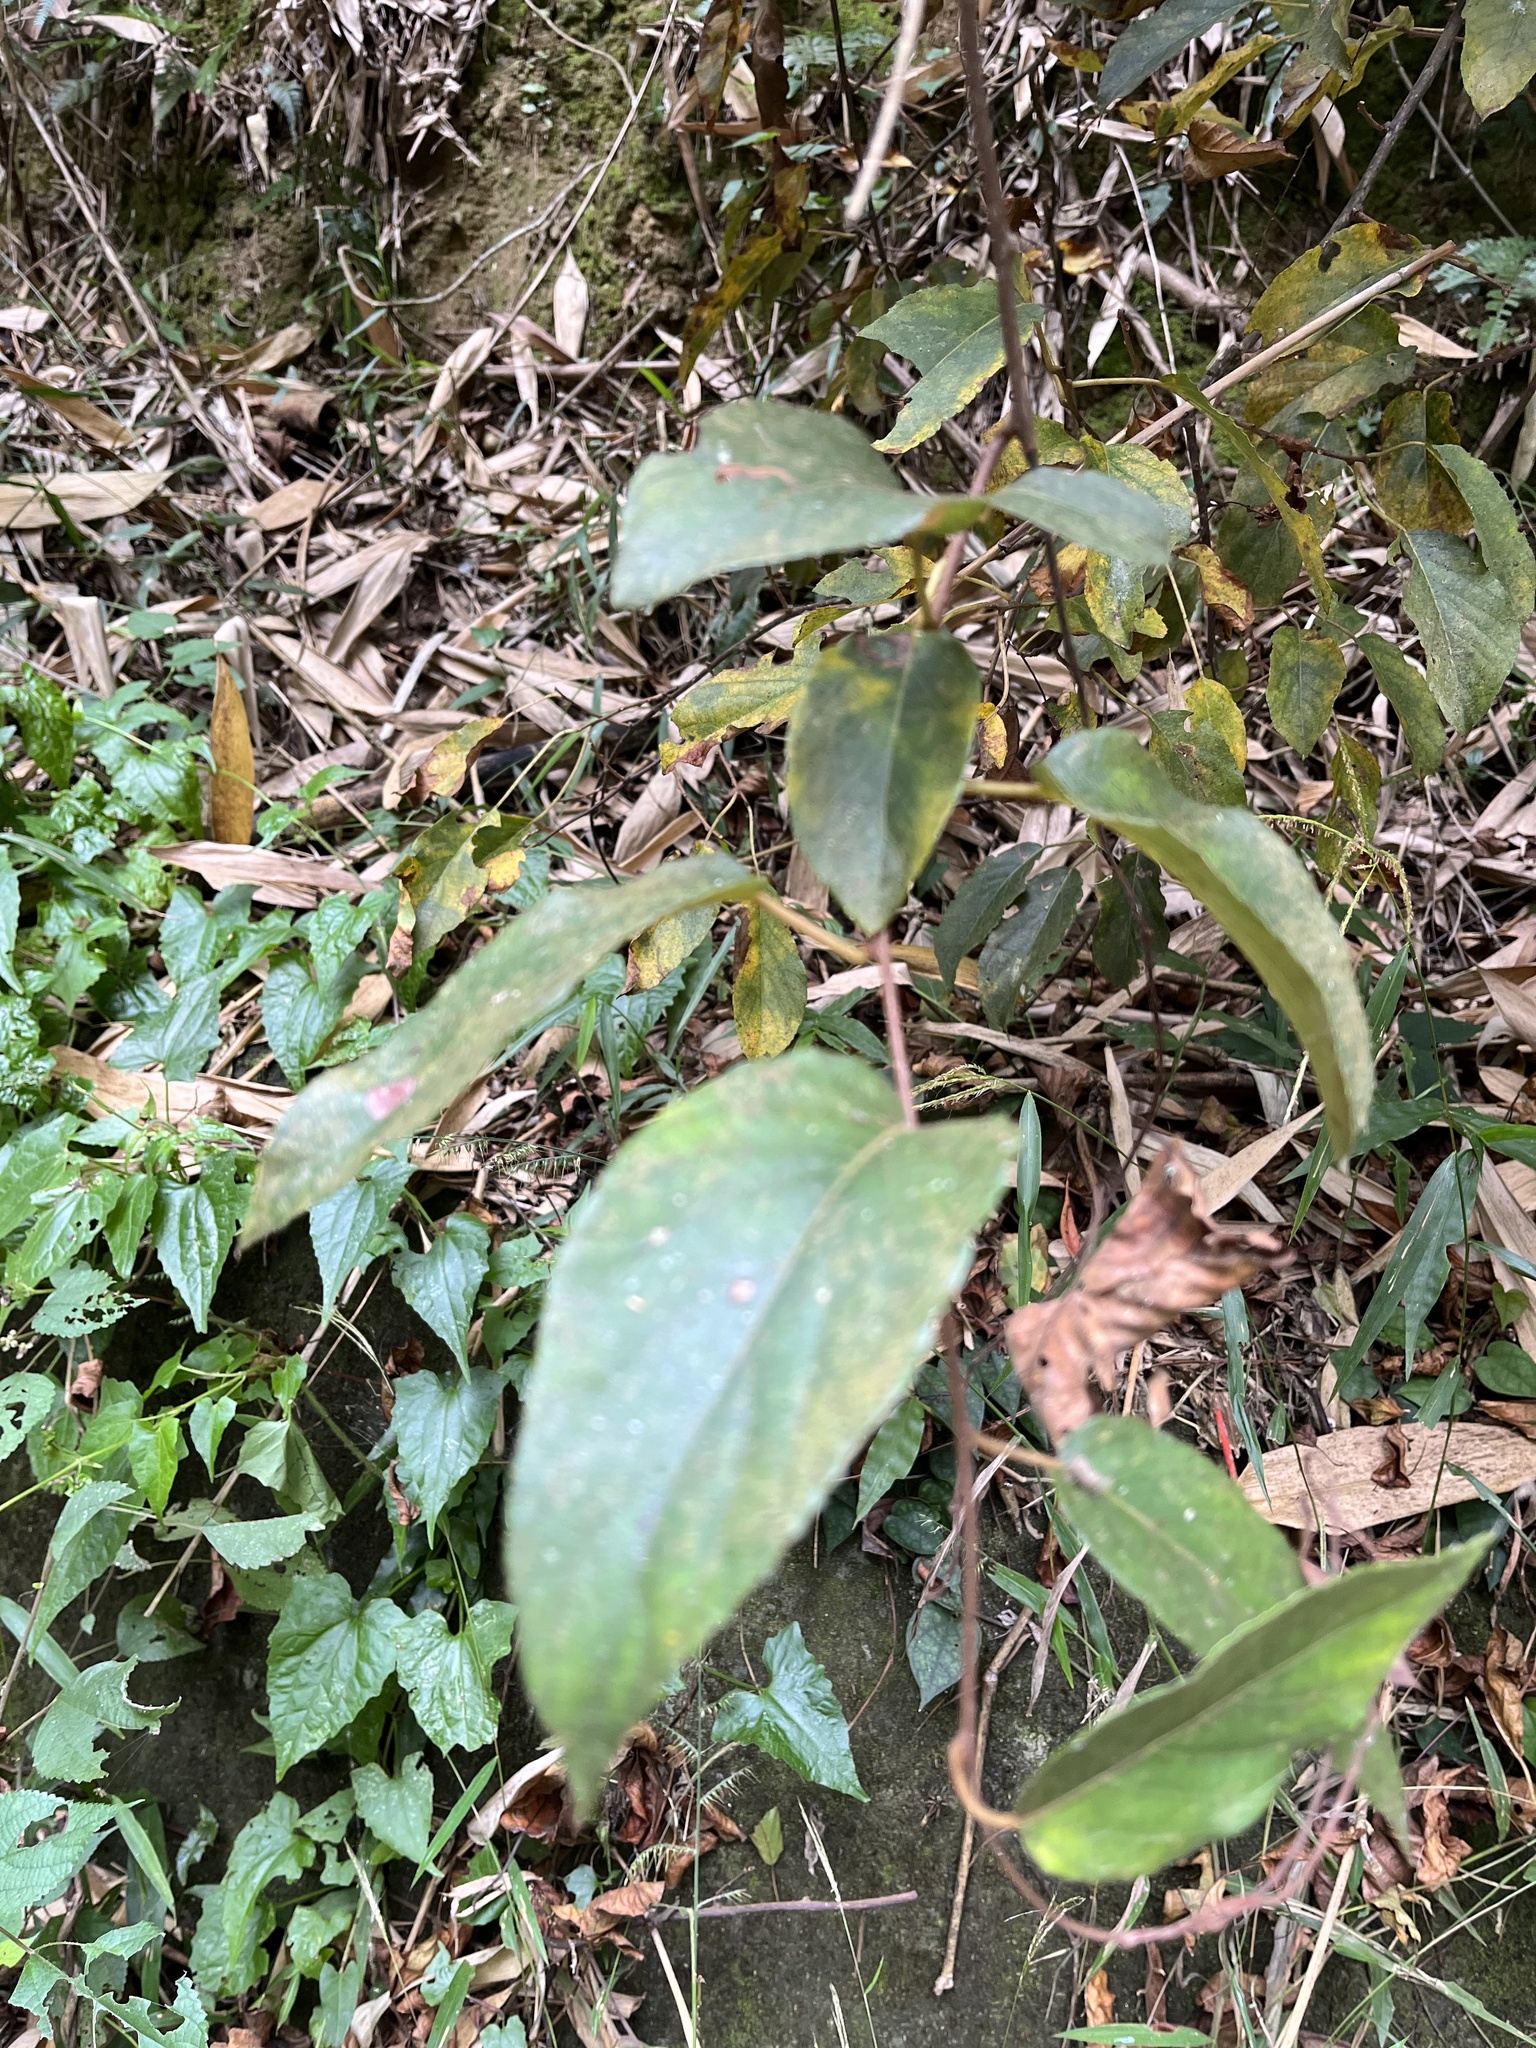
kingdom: Plantae
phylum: Tracheophyta
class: Magnoliopsida
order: Ericales
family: Actinidiaceae
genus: Actinidia
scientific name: Actinidia rufa
